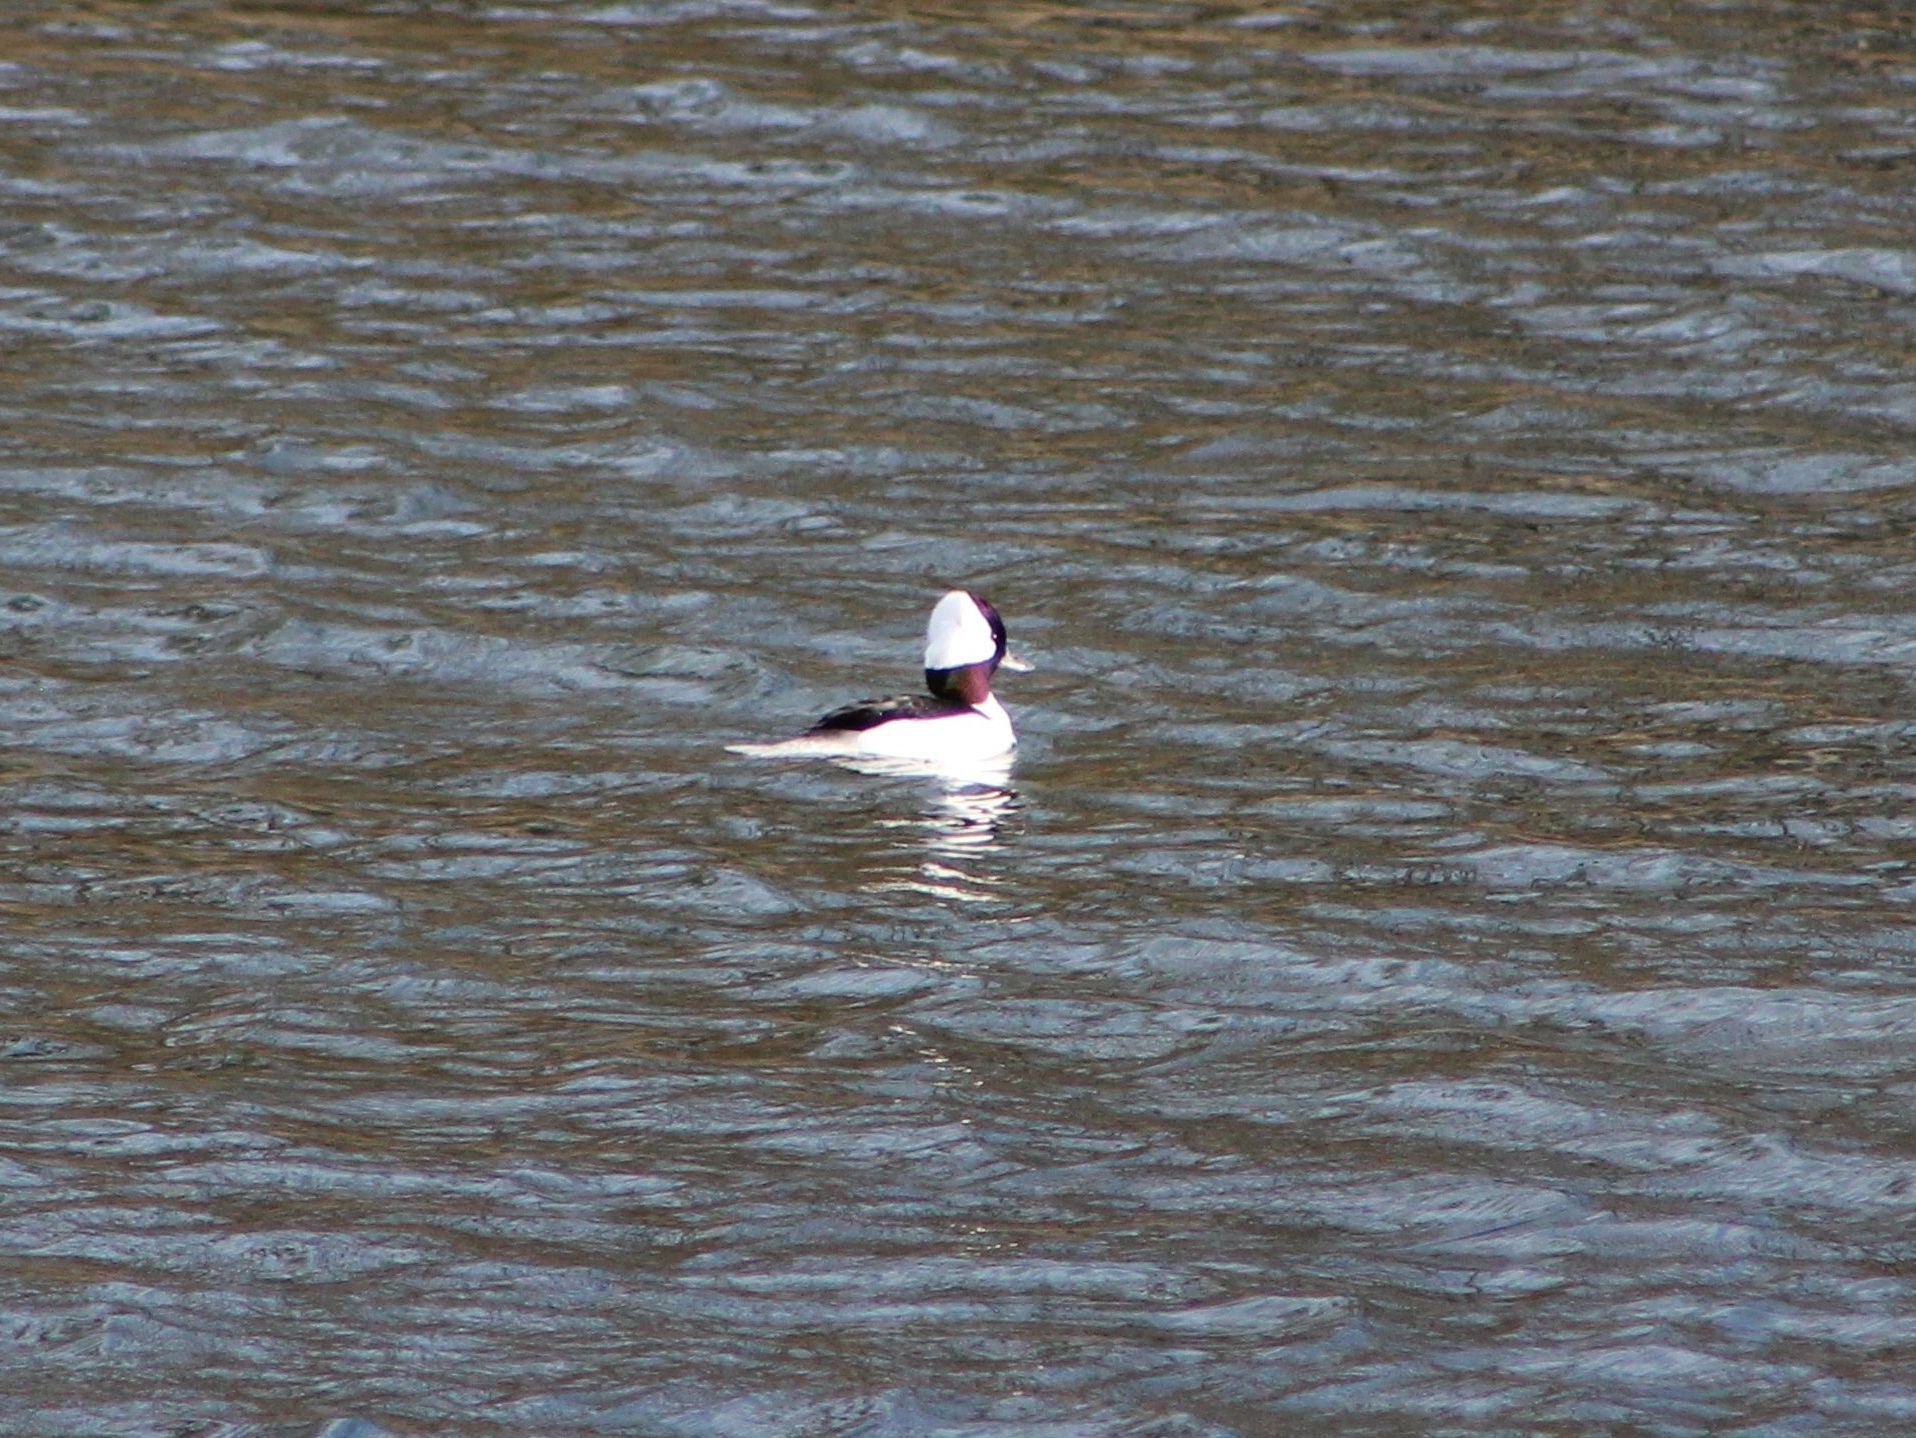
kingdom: Animalia
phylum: Chordata
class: Aves
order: Anseriformes
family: Anatidae
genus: Bucephala
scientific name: Bucephala albeola
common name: Bufflehead
